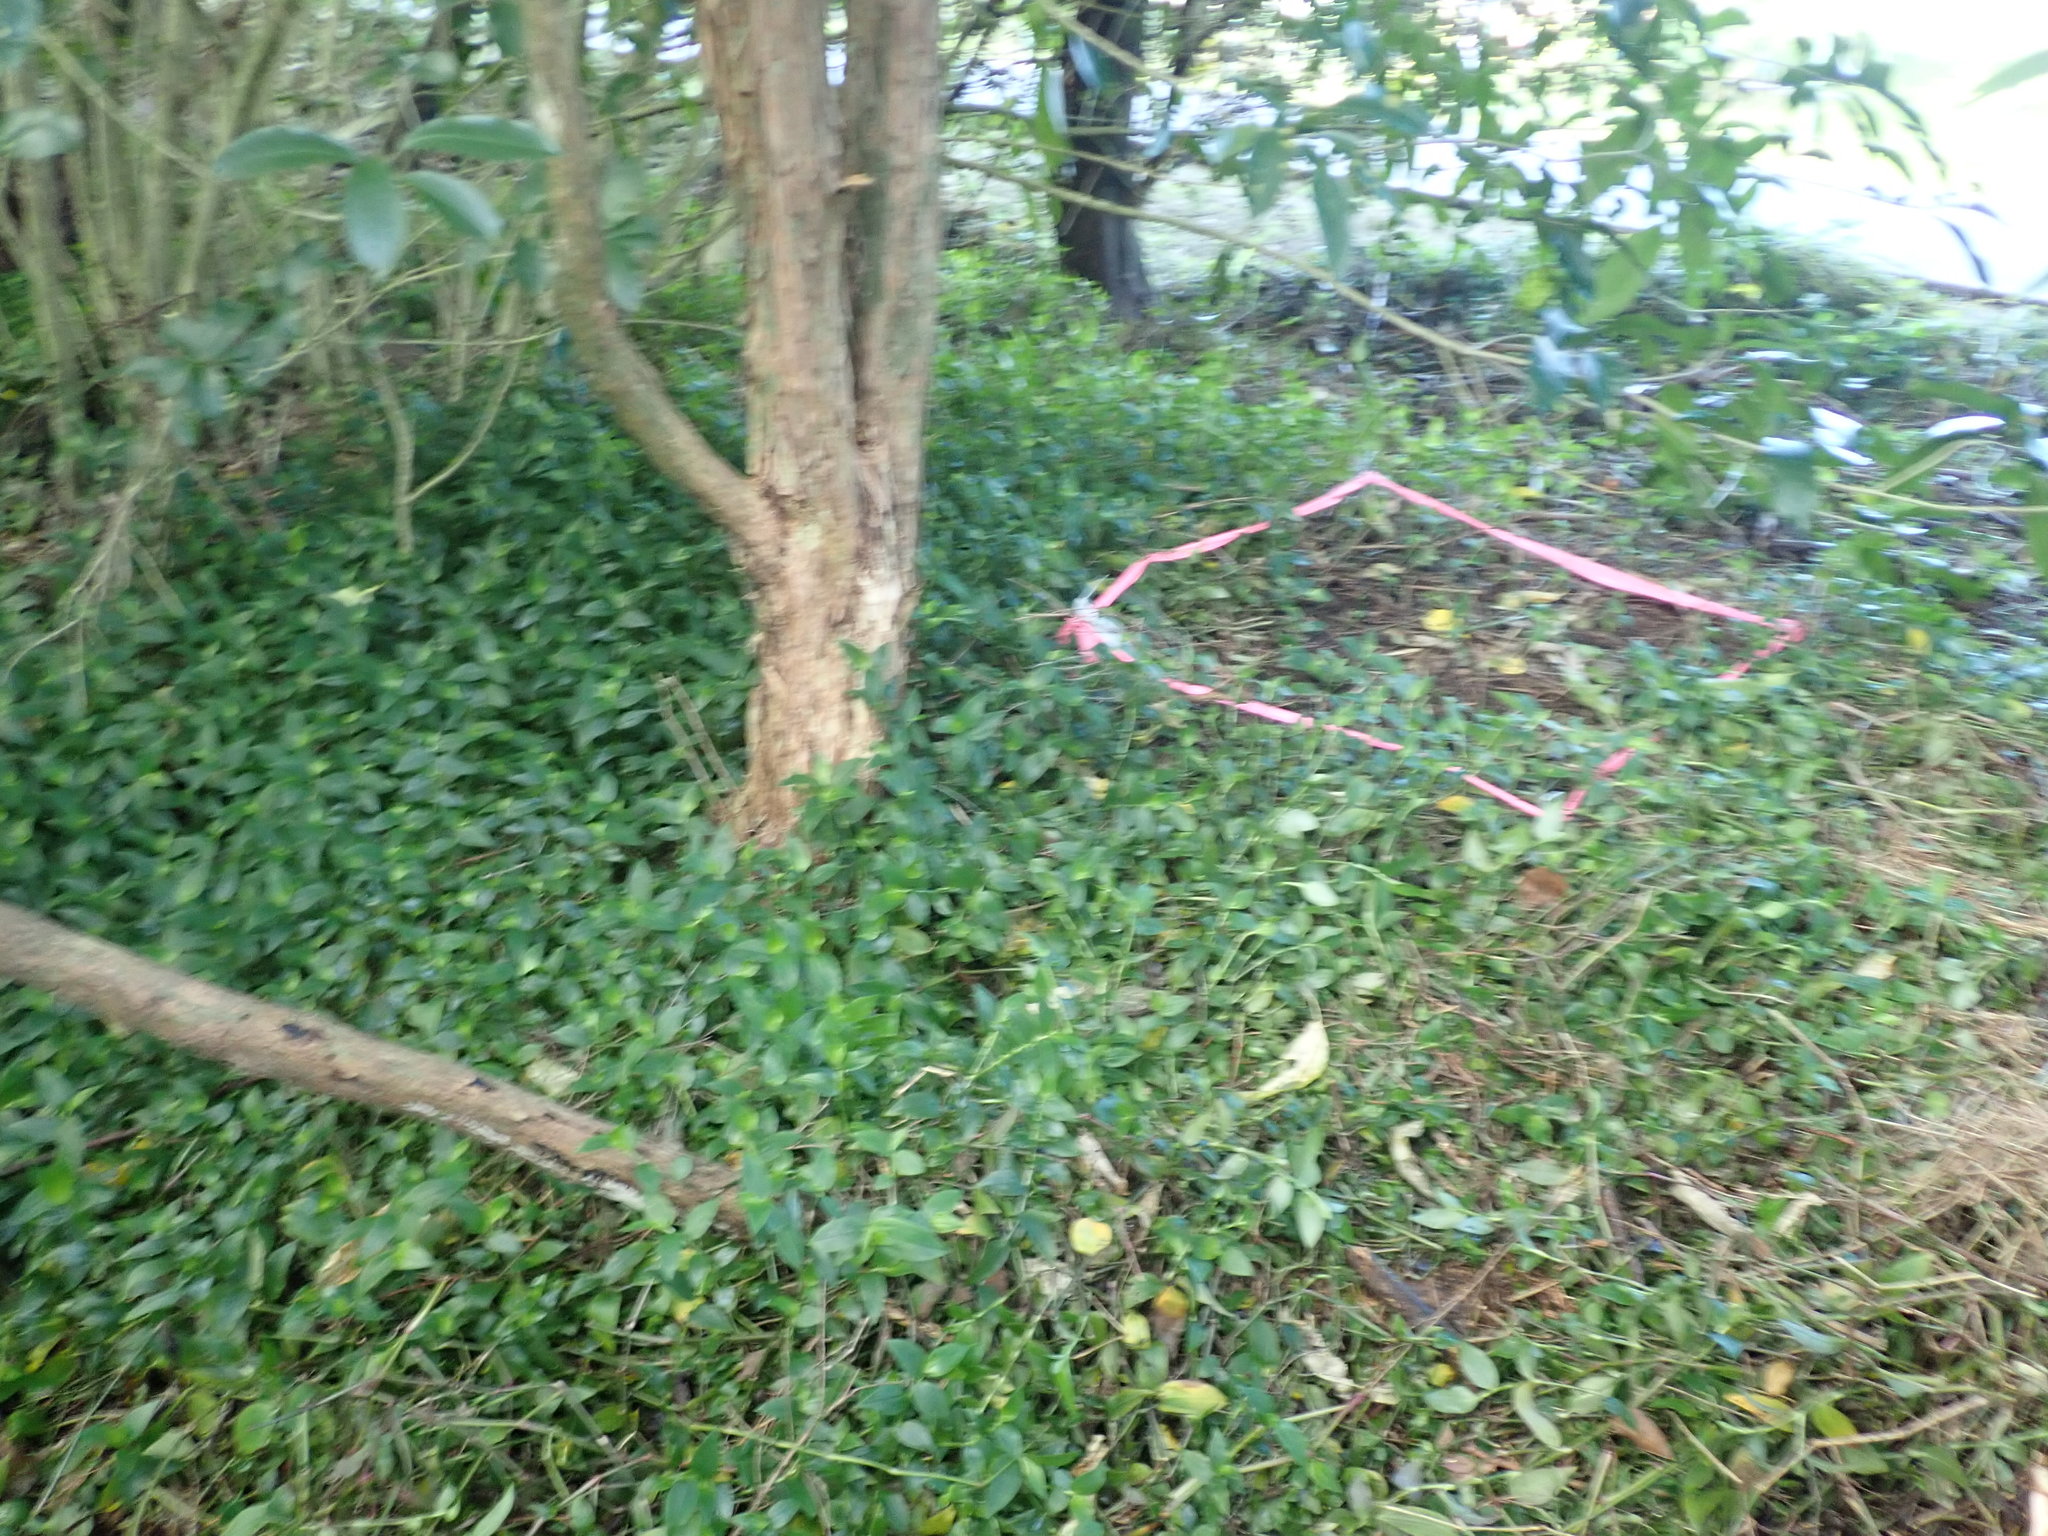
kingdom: Plantae
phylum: Tracheophyta
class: Liliopsida
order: Commelinales
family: Commelinaceae
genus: Tradescantia
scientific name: Tradescantia fluminensis
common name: Wandering-jew
